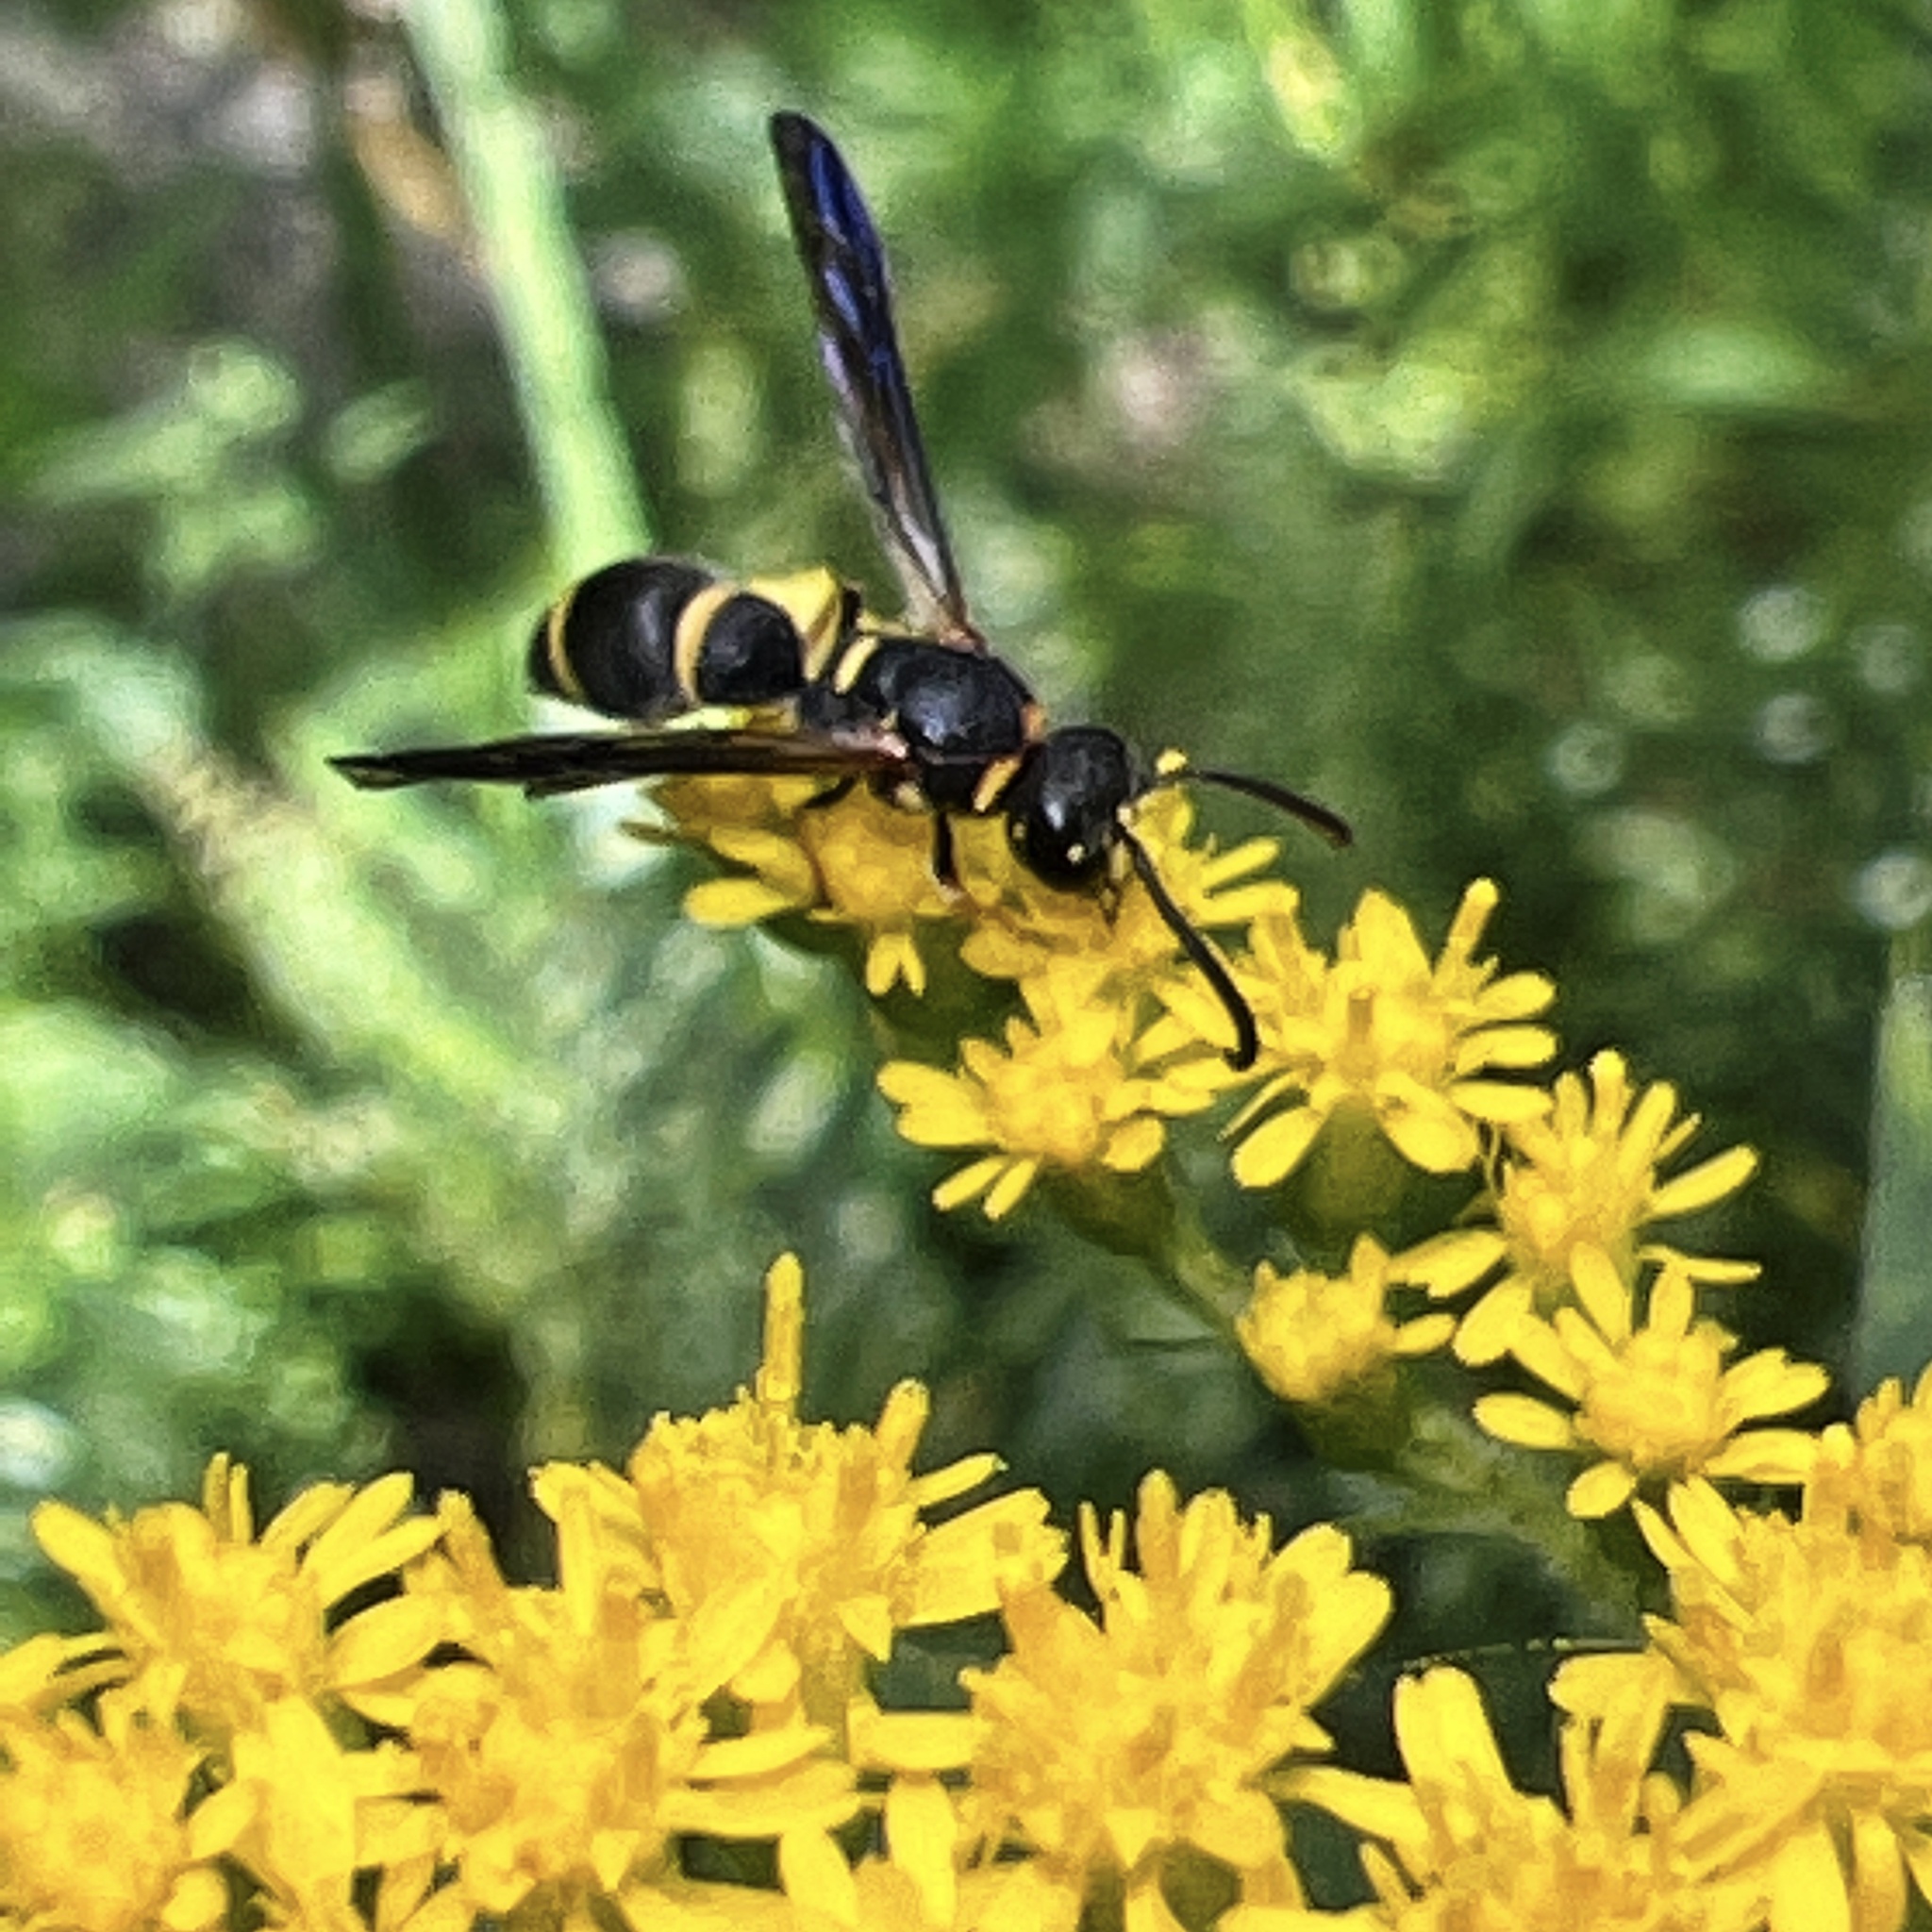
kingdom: Animalia
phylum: Arthropoda
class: Insecta
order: Hymenoptera
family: Eumenidae
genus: Parancistrocerus
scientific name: Parancistrocerus perennis
